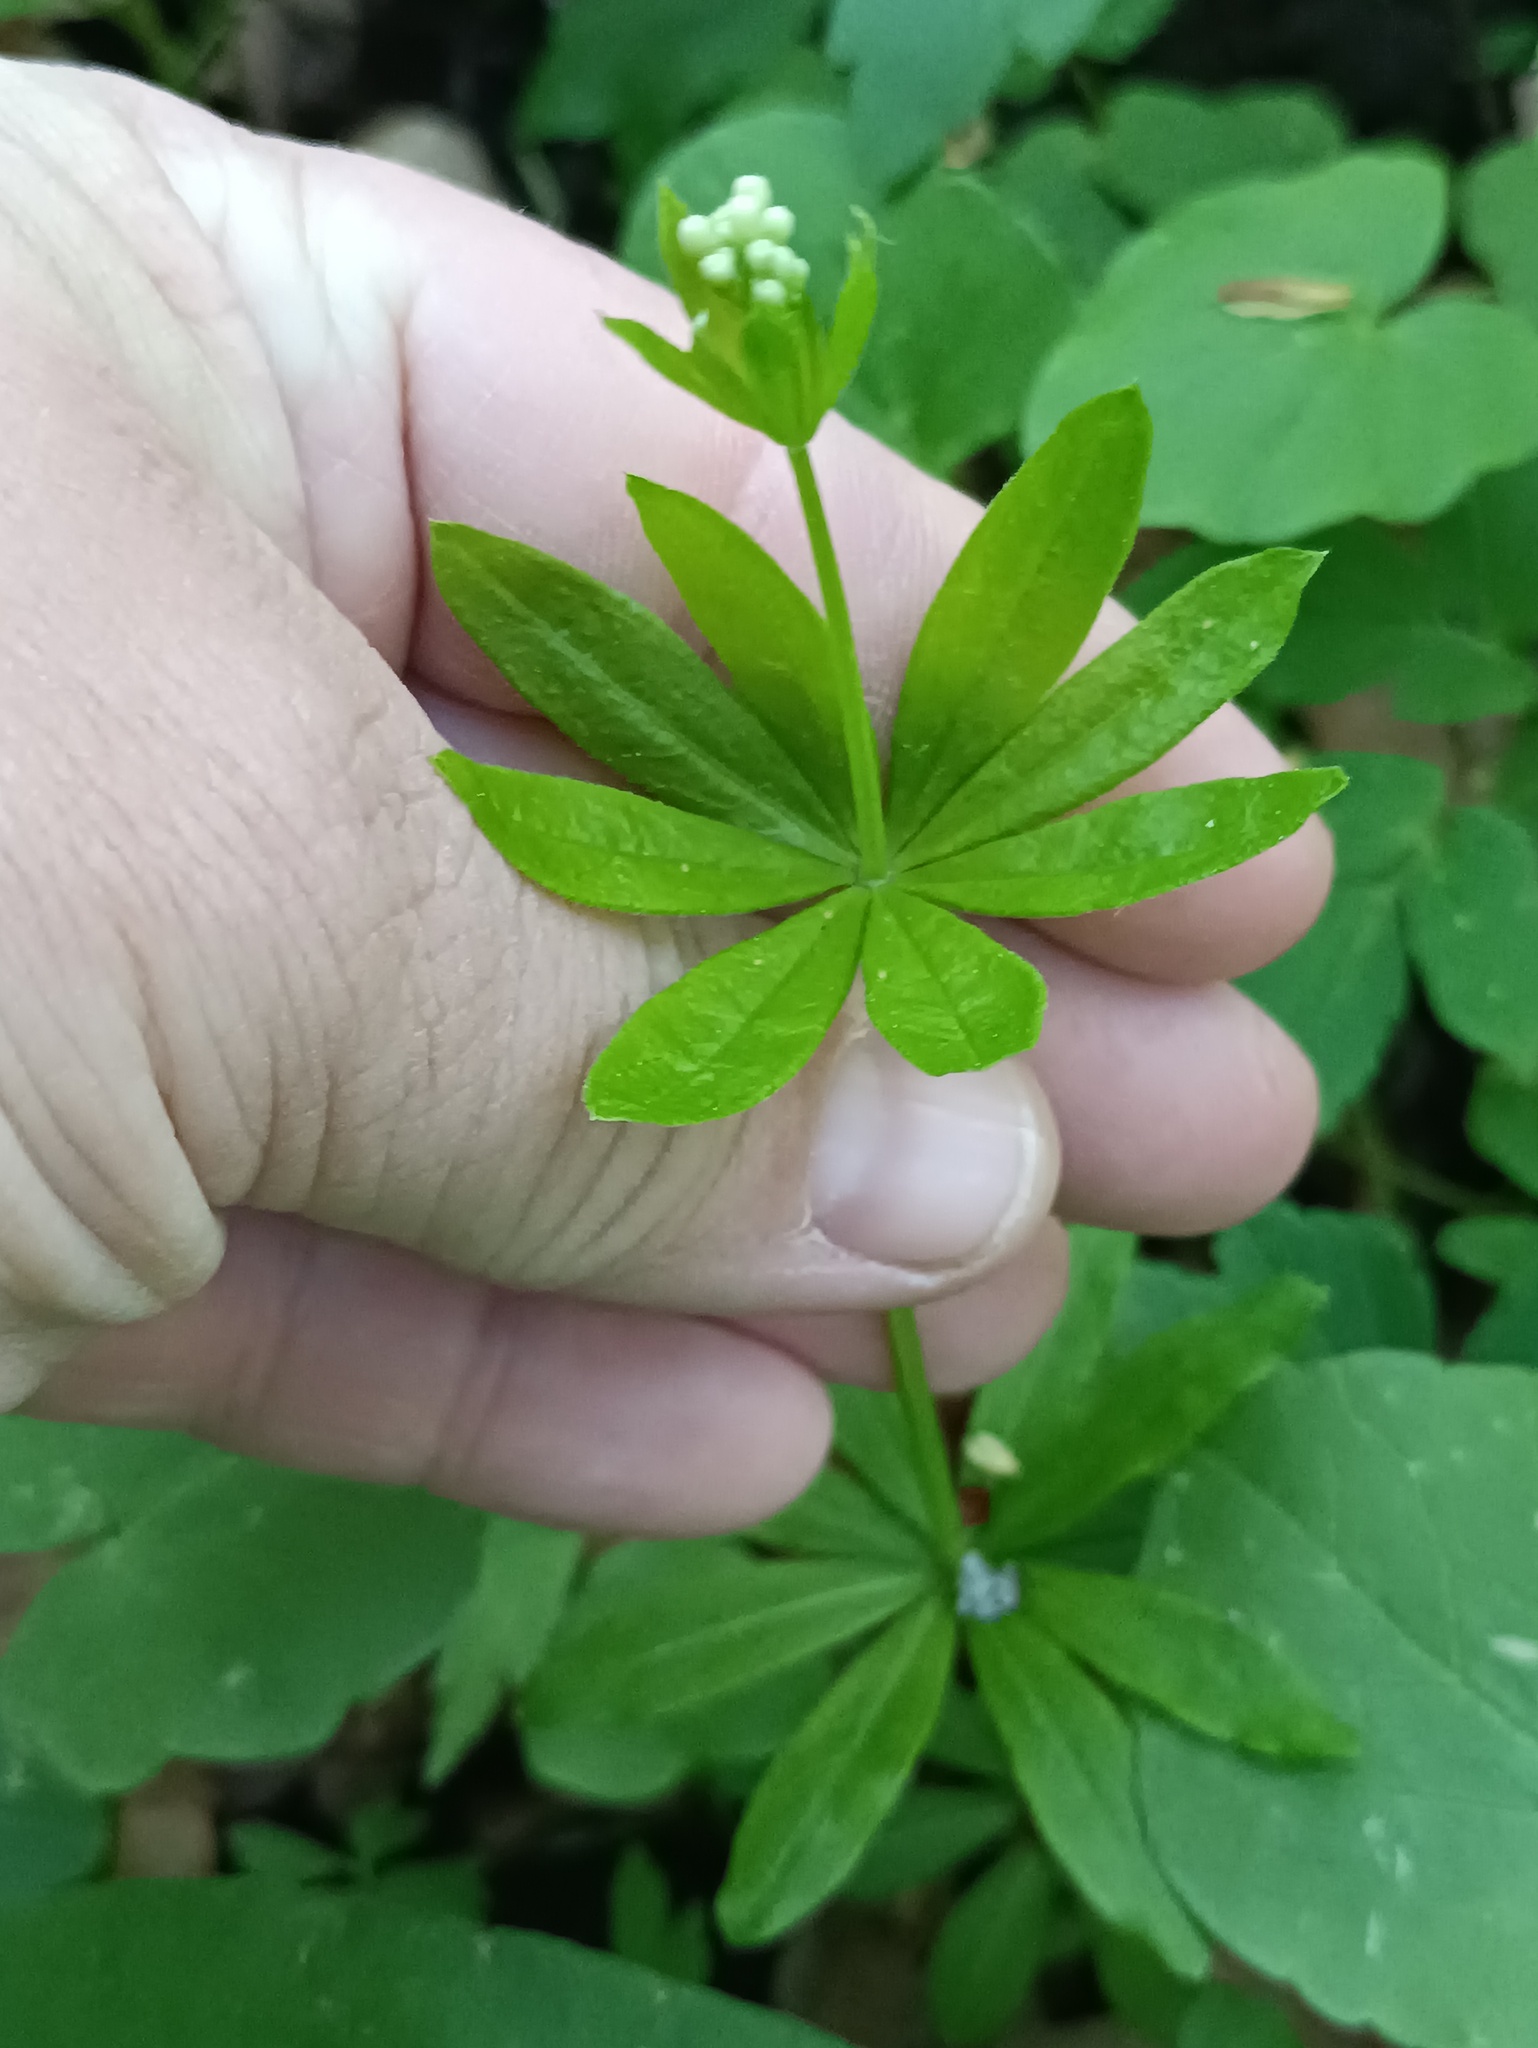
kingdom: Plantae
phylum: Tracheophyta
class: Magnoliopsida
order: Gentianales
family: Rubiaceae
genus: Galium
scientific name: Galium odoratum
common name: Sweet woodruff
